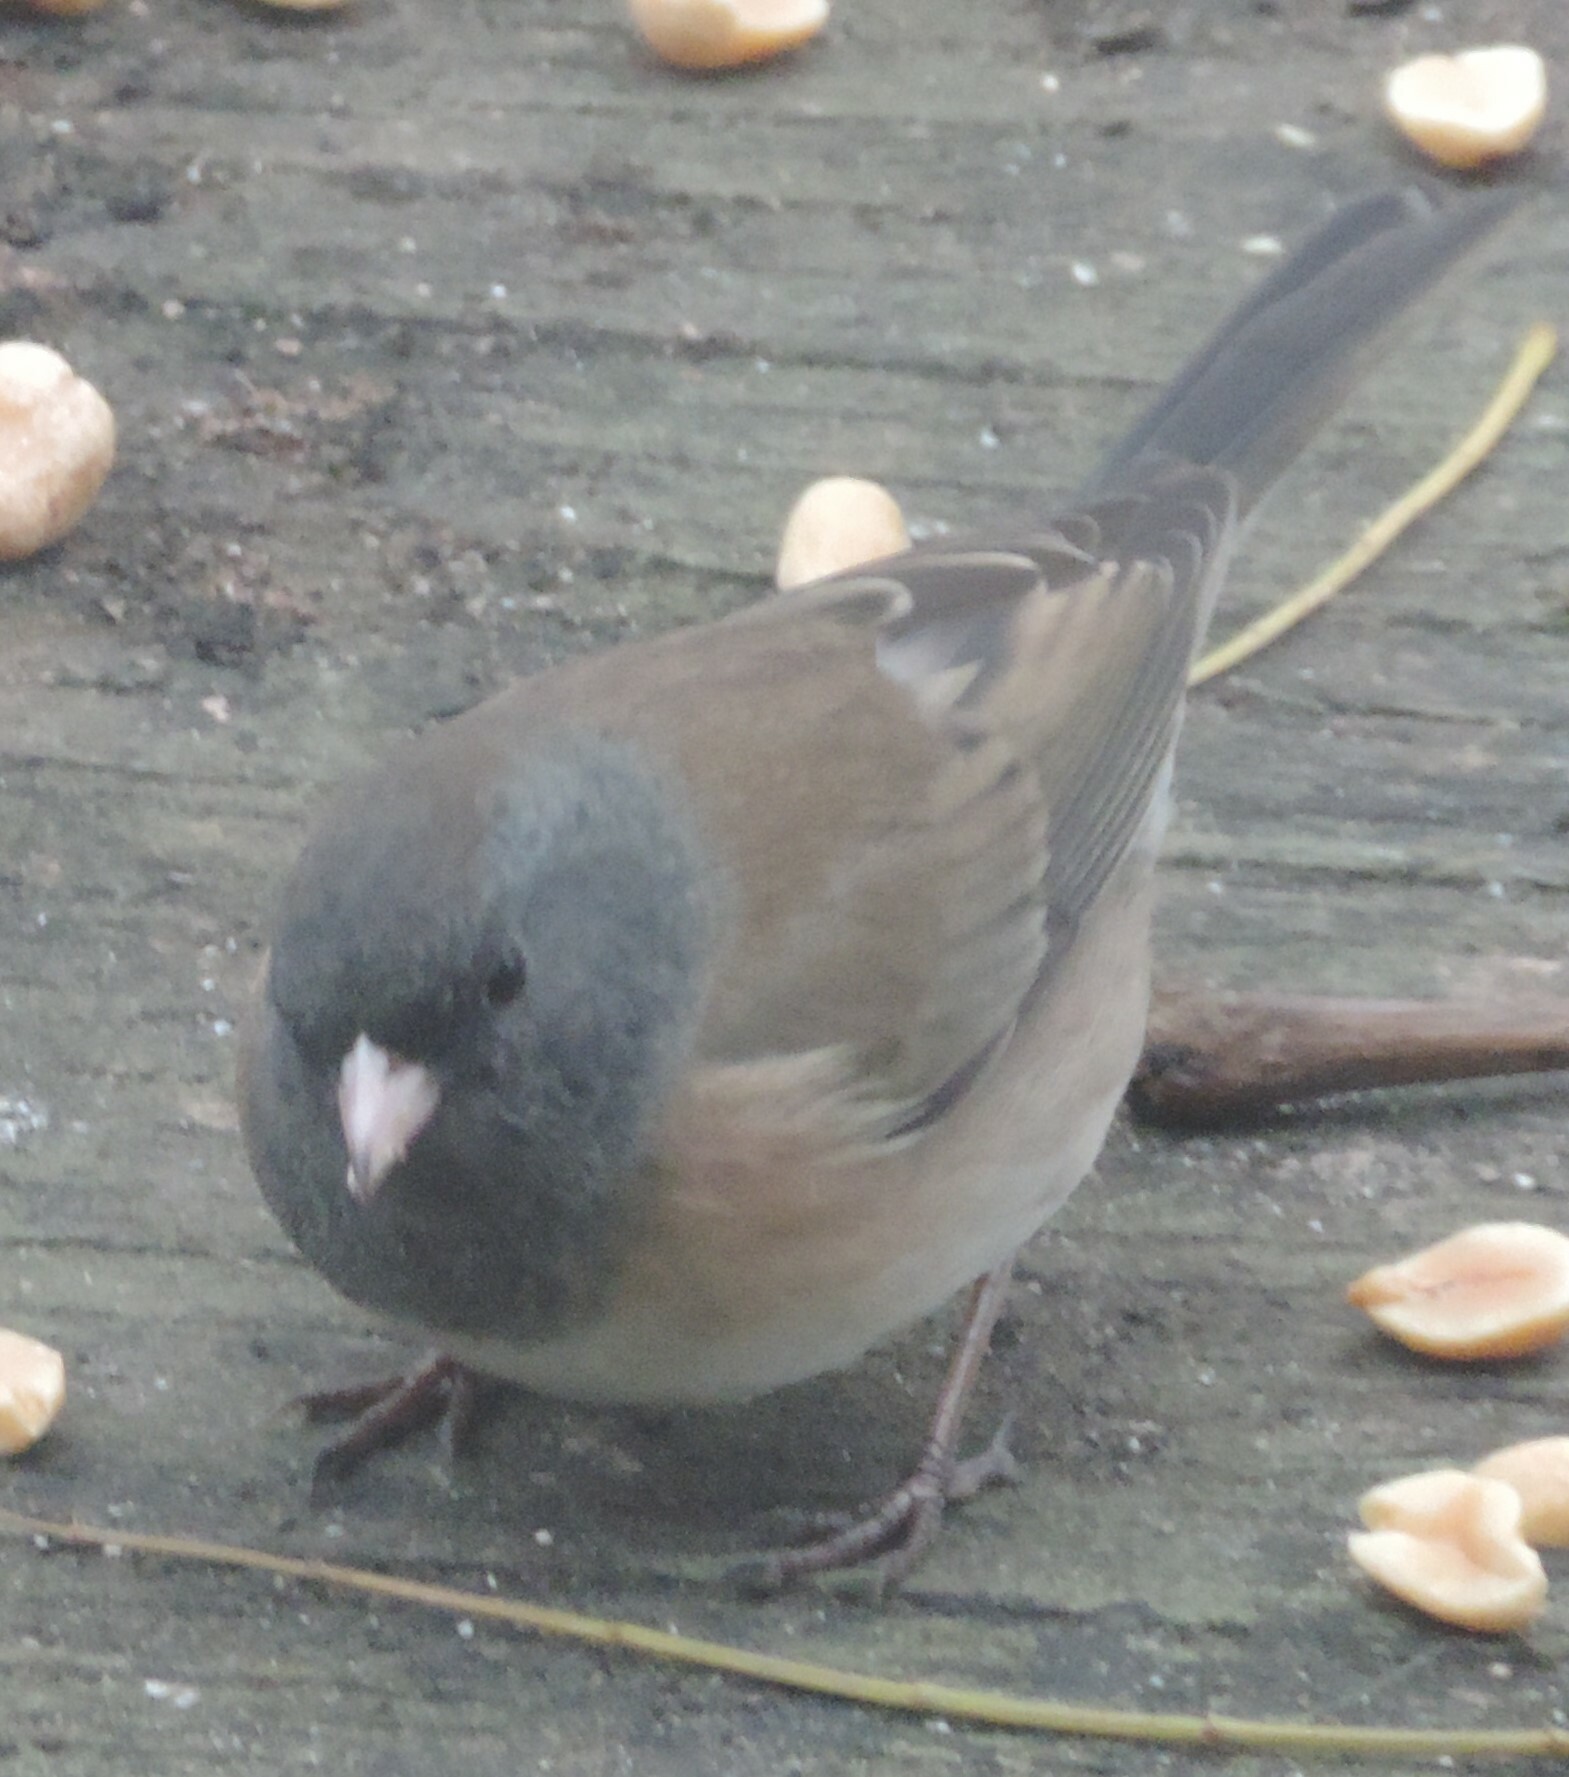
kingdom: Animalia
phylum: Chordata
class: Aves
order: Passeriformes
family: Passerellidae
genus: Junco
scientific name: Junco hyemalis
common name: Dark-eyed junco
